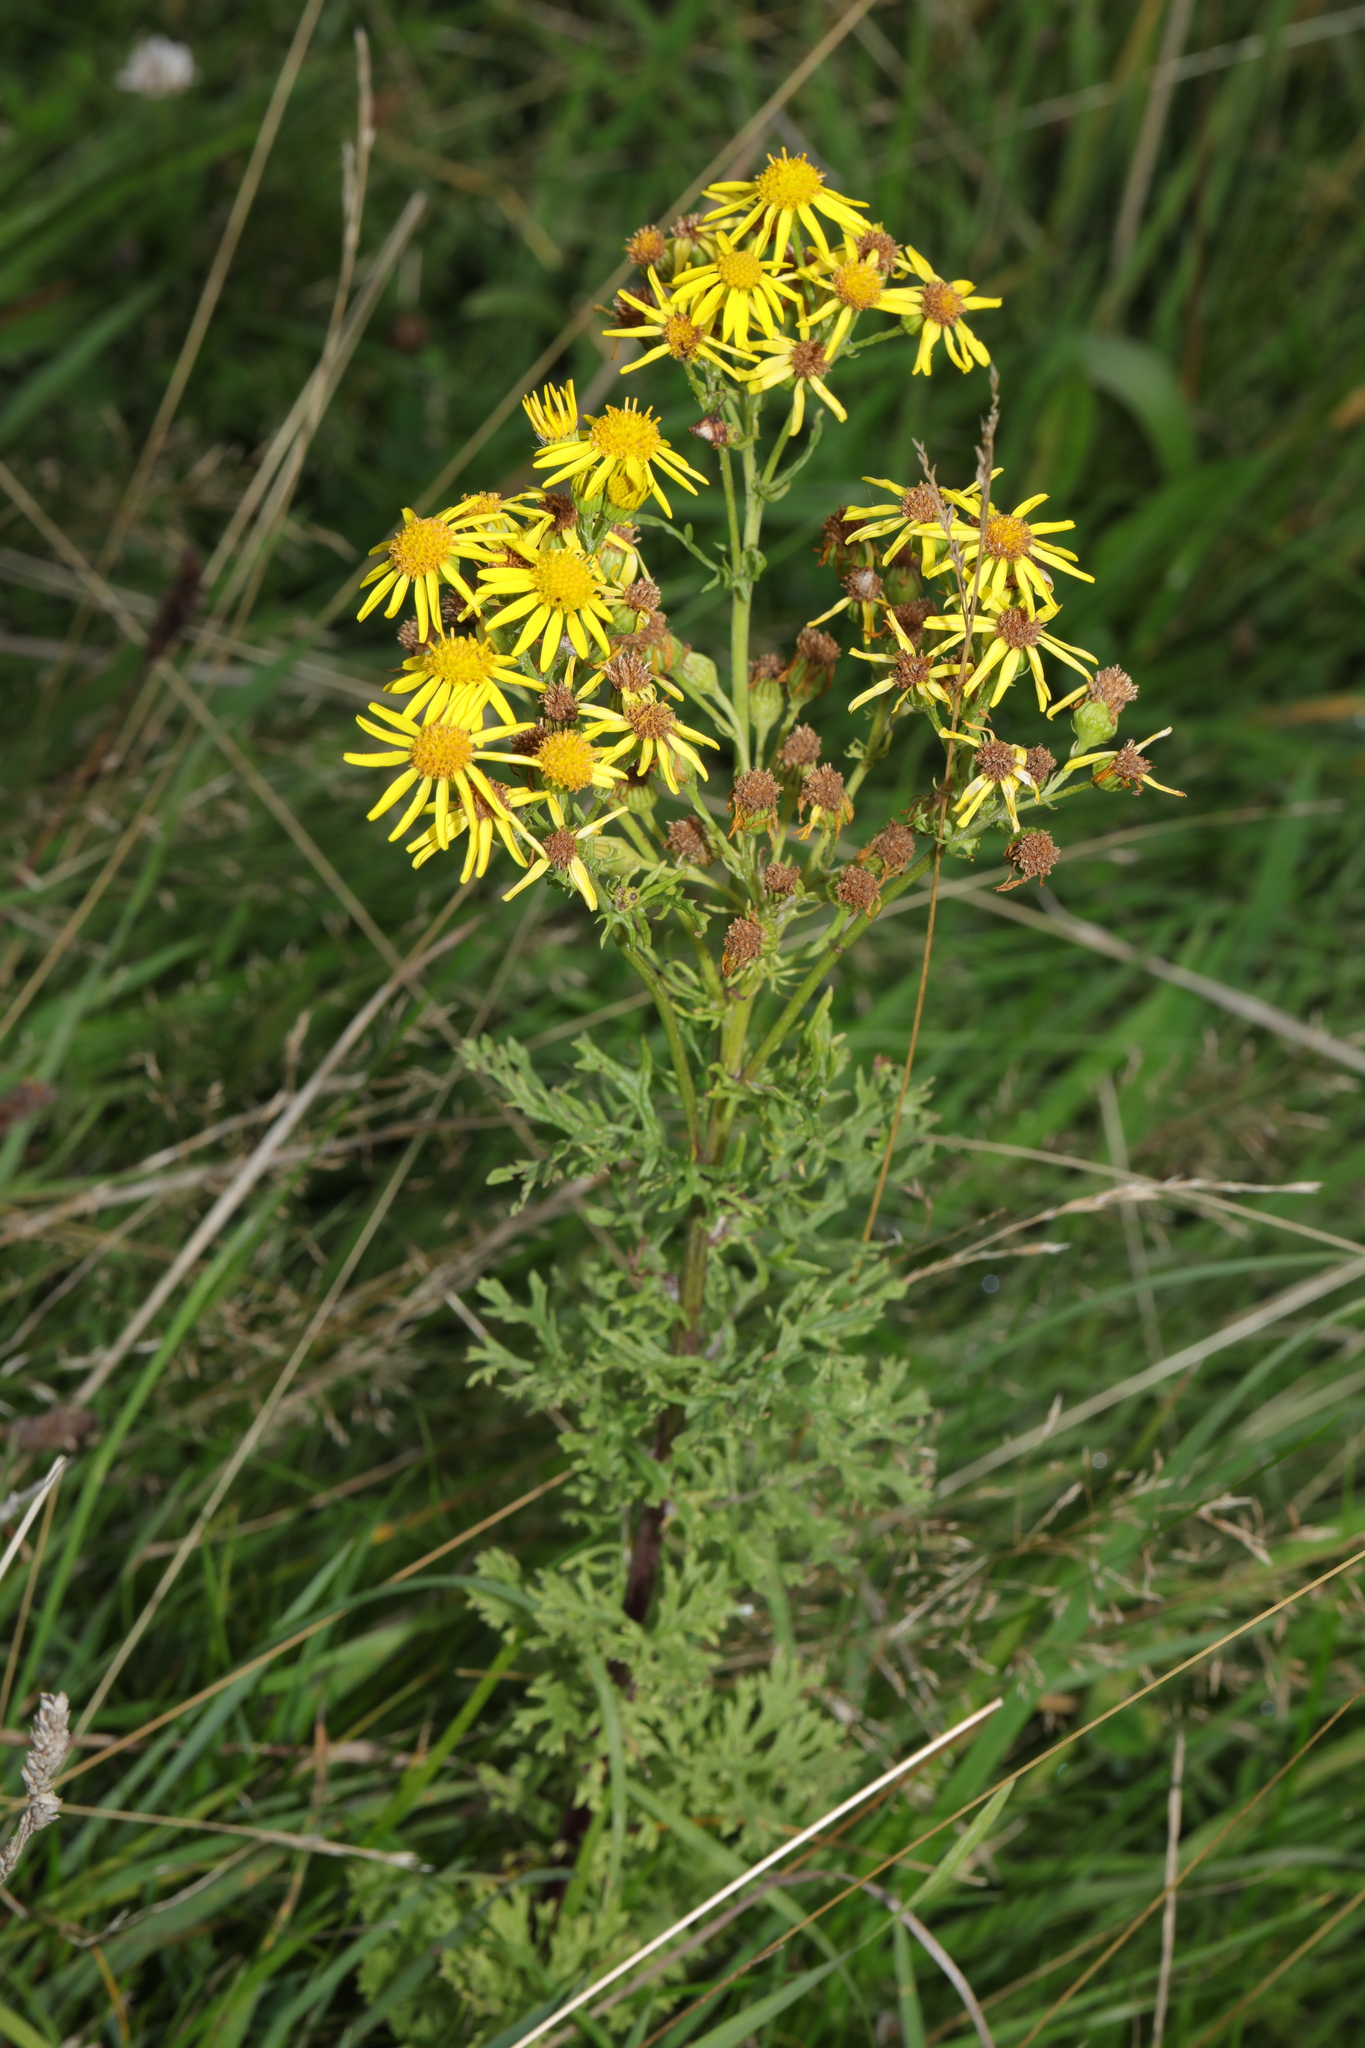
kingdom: Plantae
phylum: Tracheophyta
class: Magnoliopsida
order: Asterales
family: Asteraceae
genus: Jacobaea
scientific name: Jacobaea vulgaris
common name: Stinking willie
